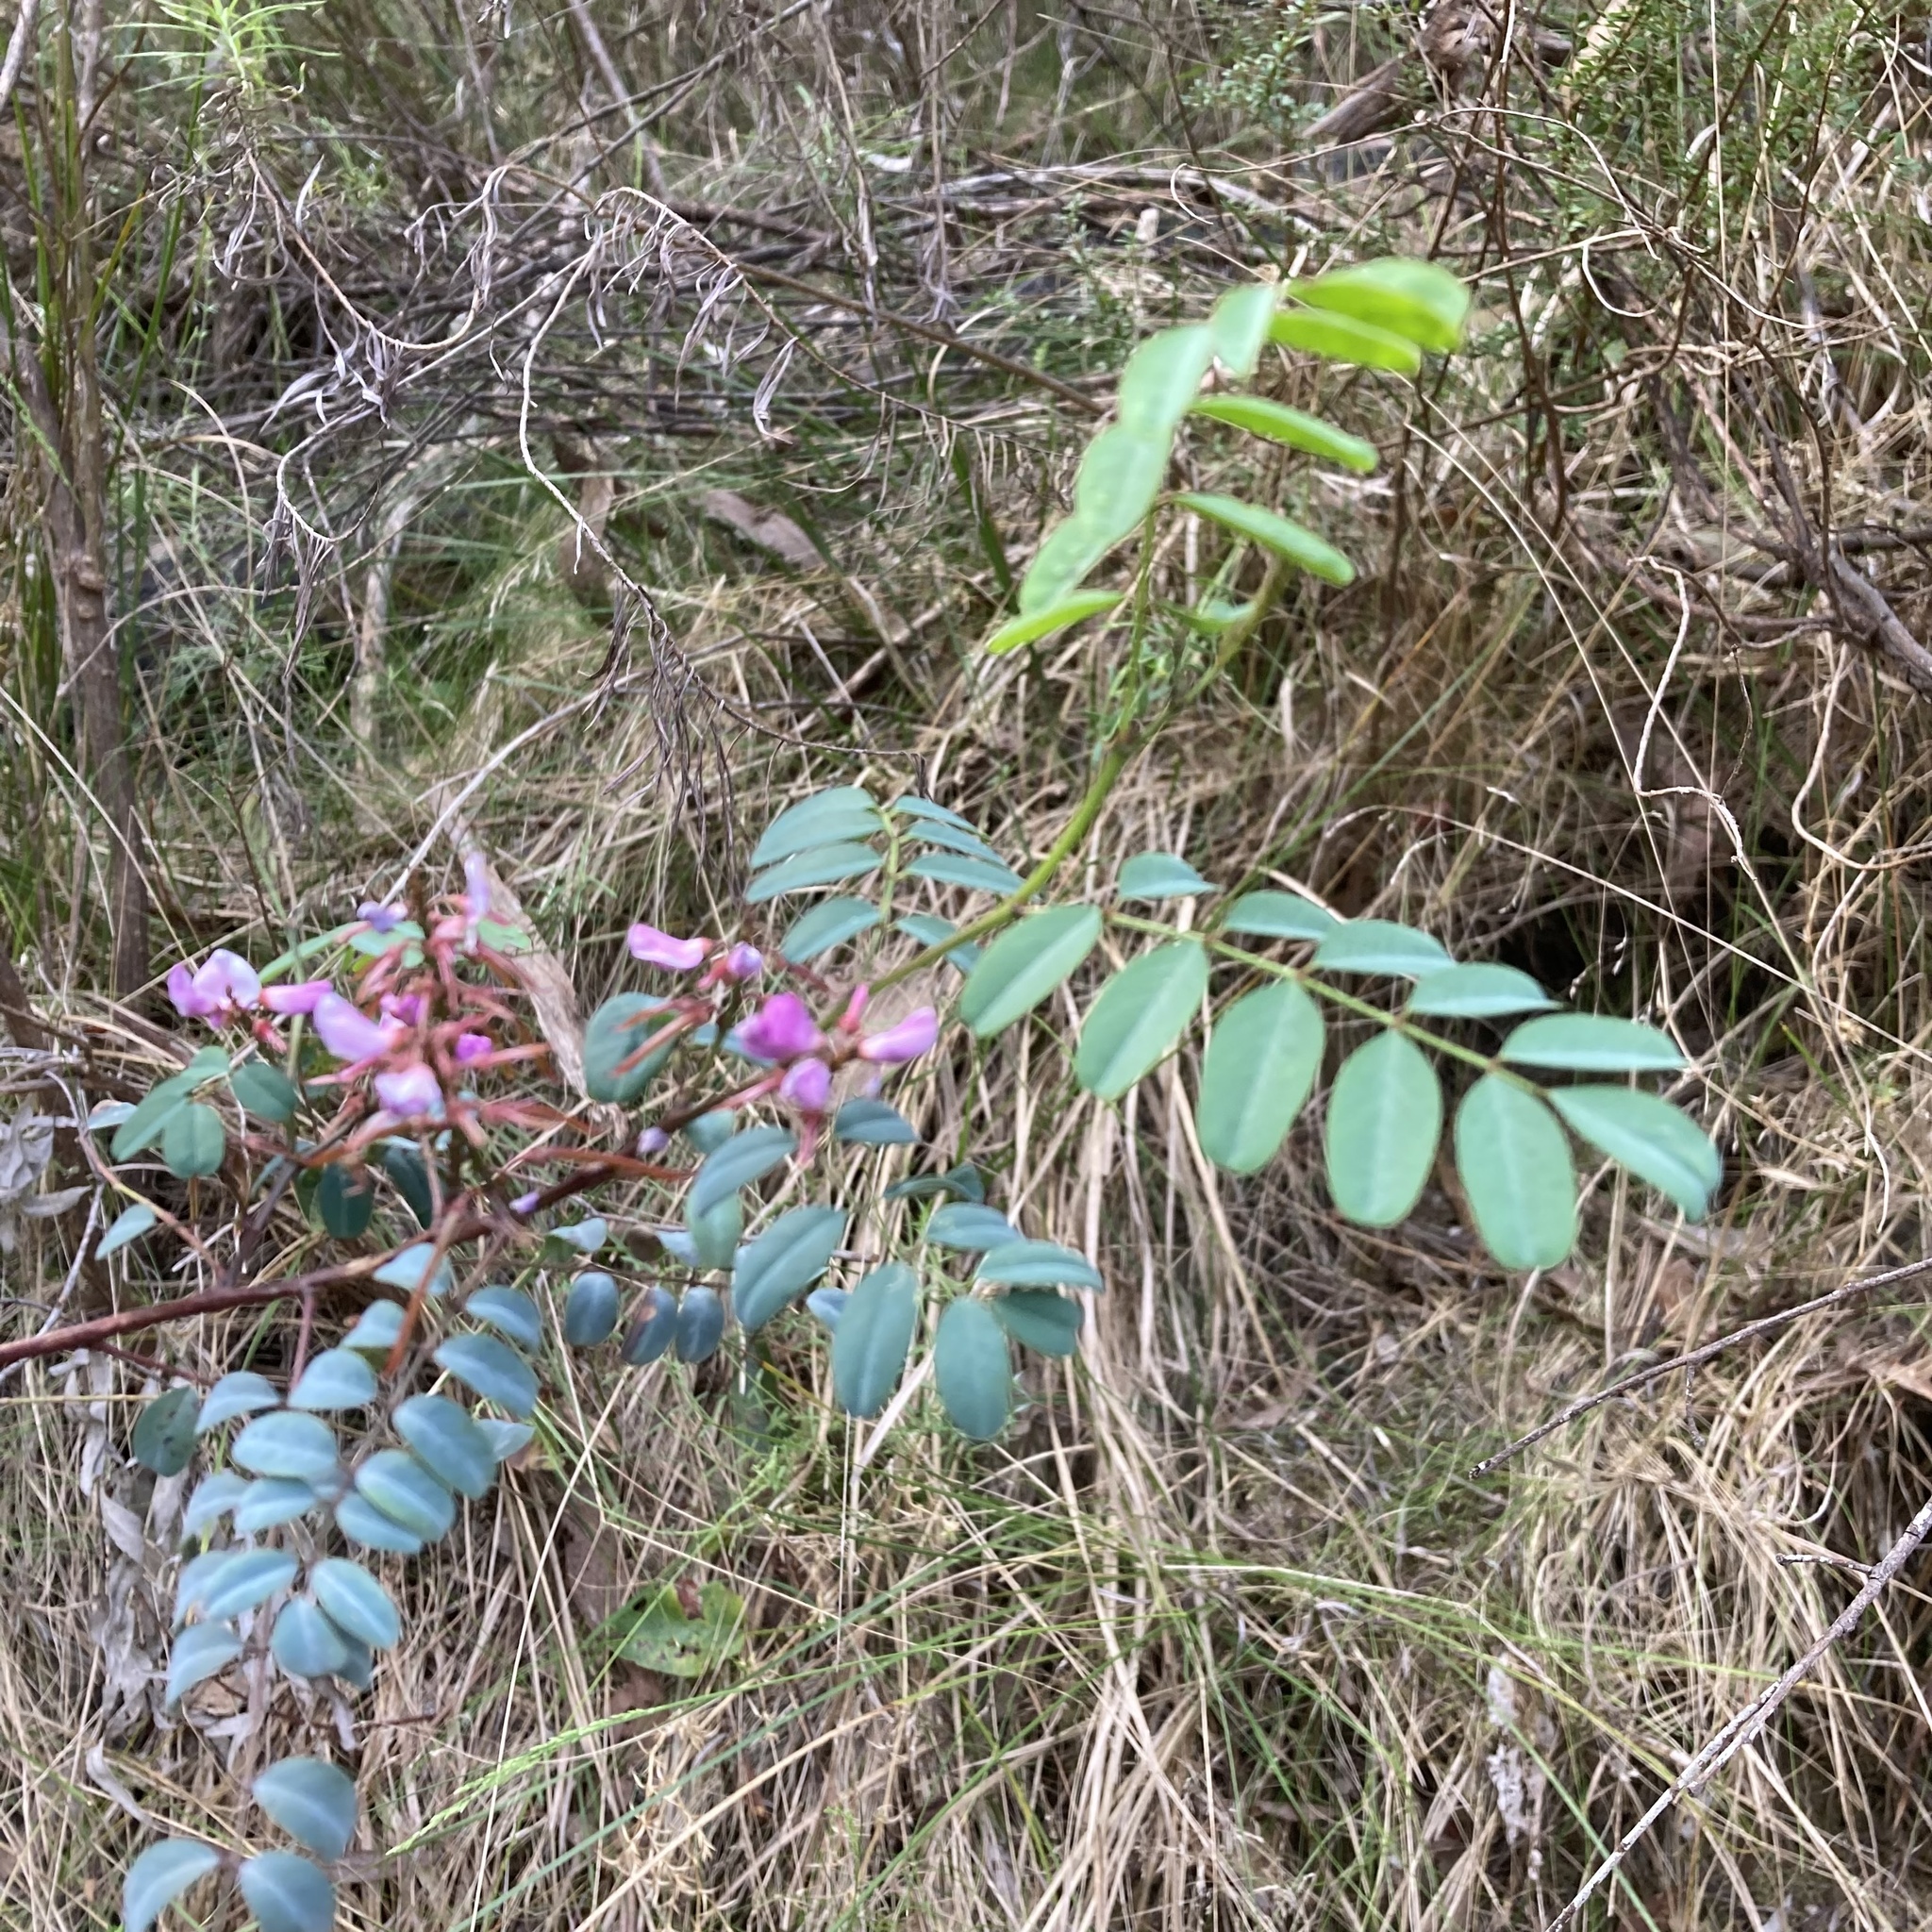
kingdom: Plantae
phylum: Tracheophyta
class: Magnoliopsida
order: Fabales
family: Fabaceae
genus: Indigofera
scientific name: Indigofera australis
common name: Australian indigo
